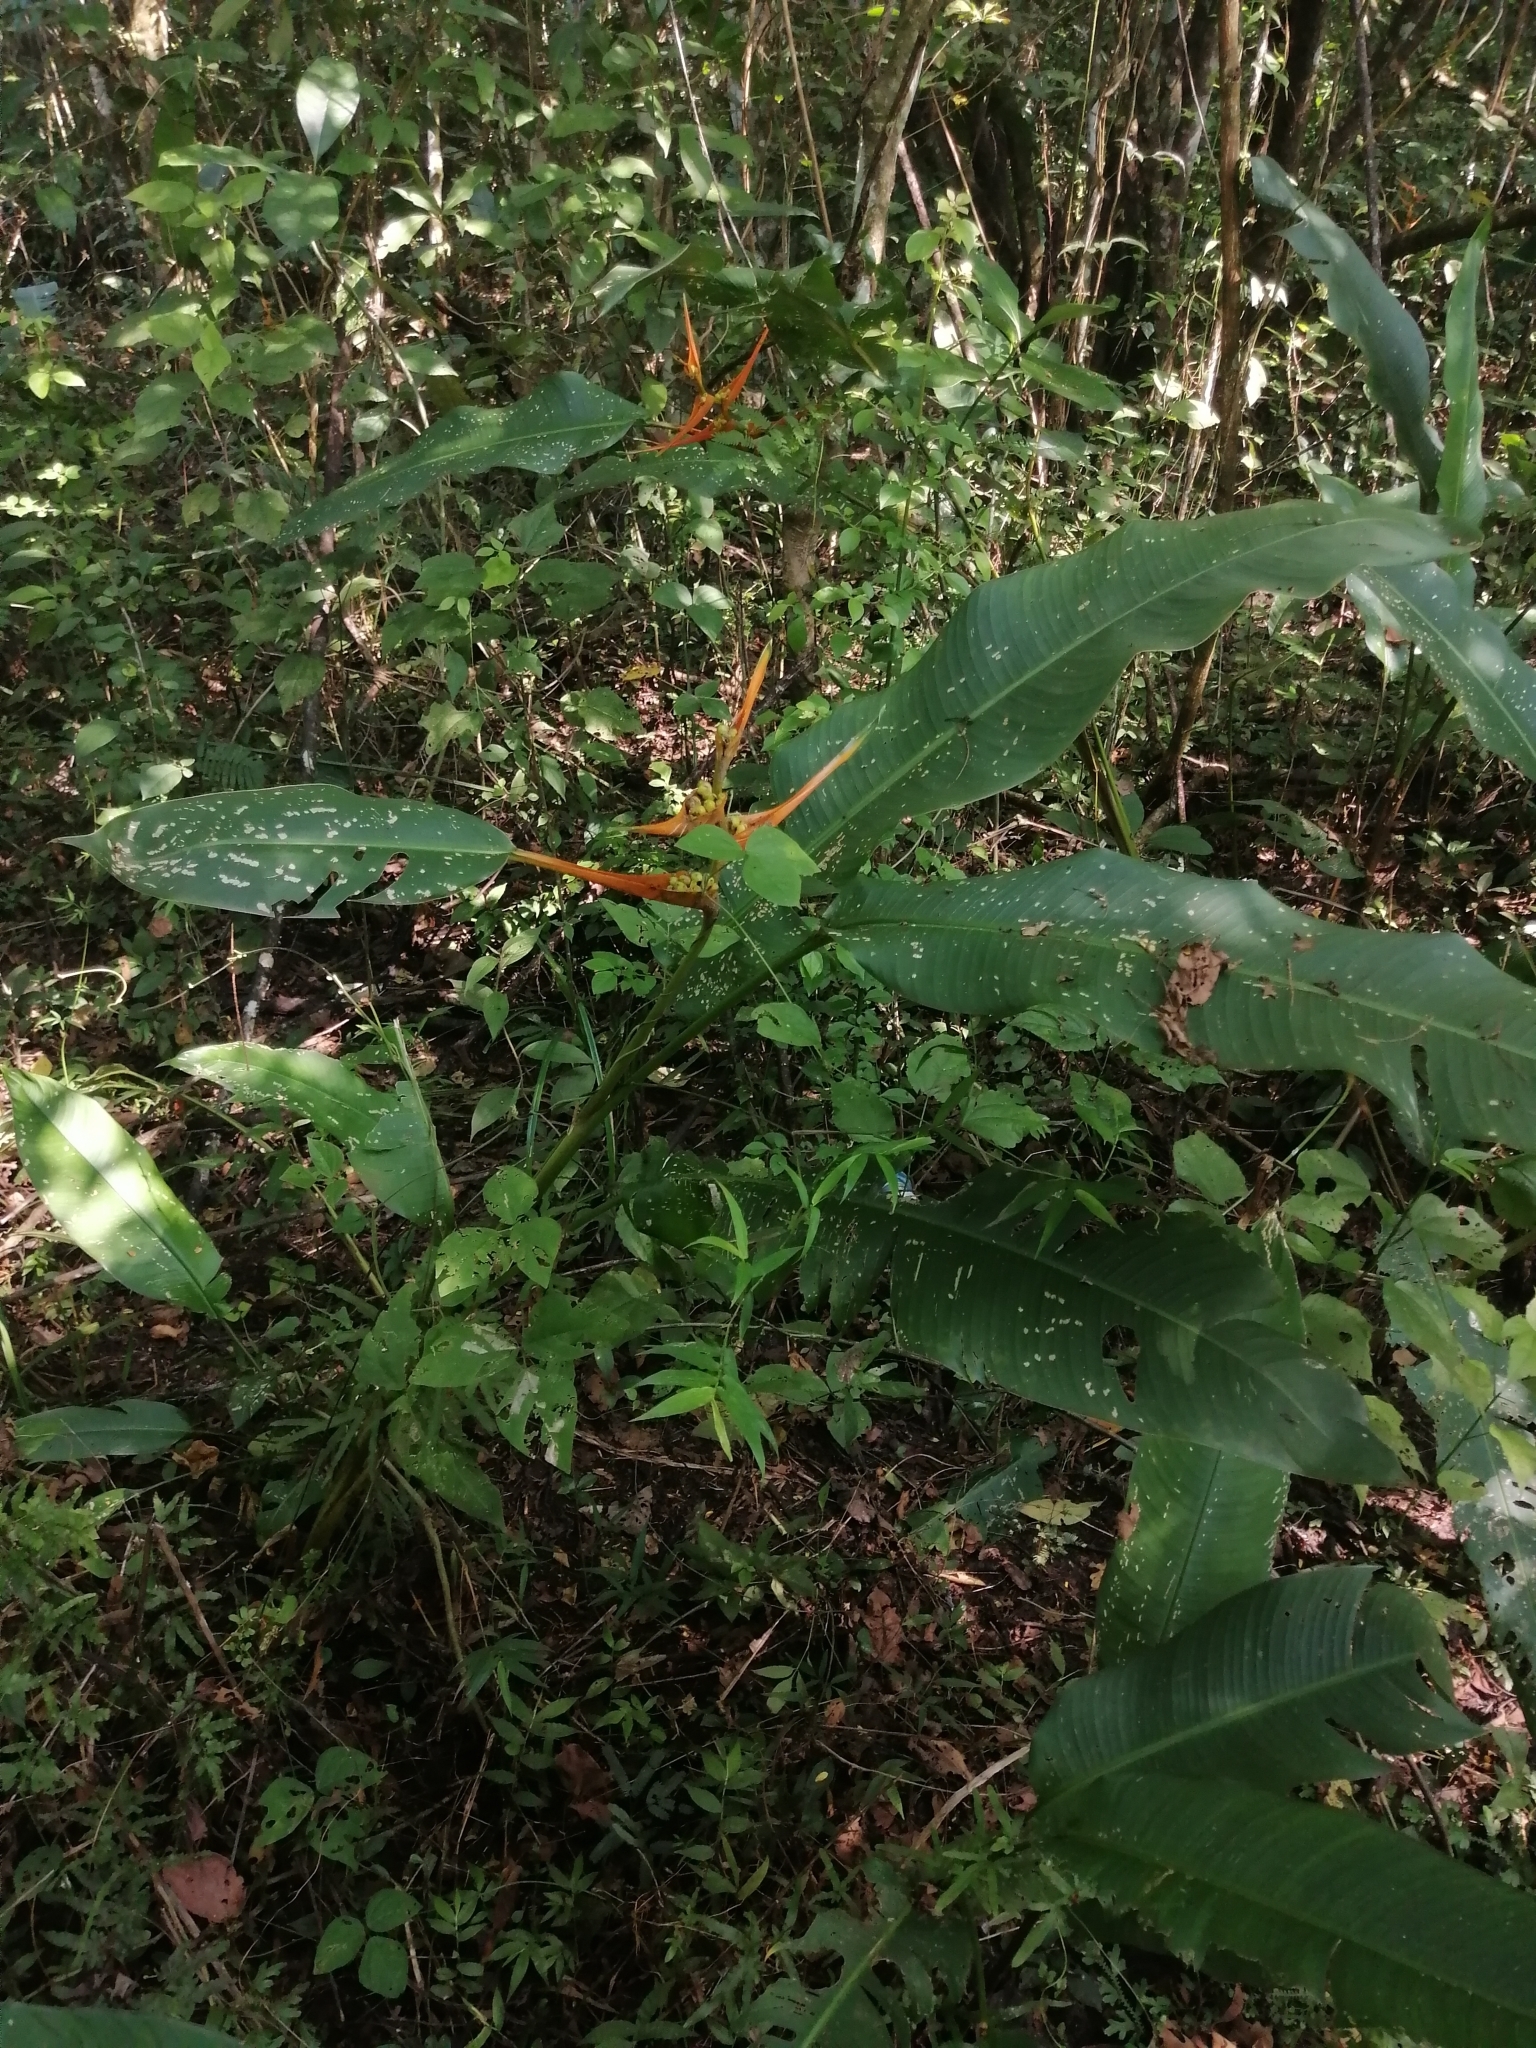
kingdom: Plantae
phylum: Tracheophyta
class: Liliopsida
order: Zingiberales
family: Heliconiaceae
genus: Heliconia
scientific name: Heliconia latispatha
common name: Expanded lobsterclaw
